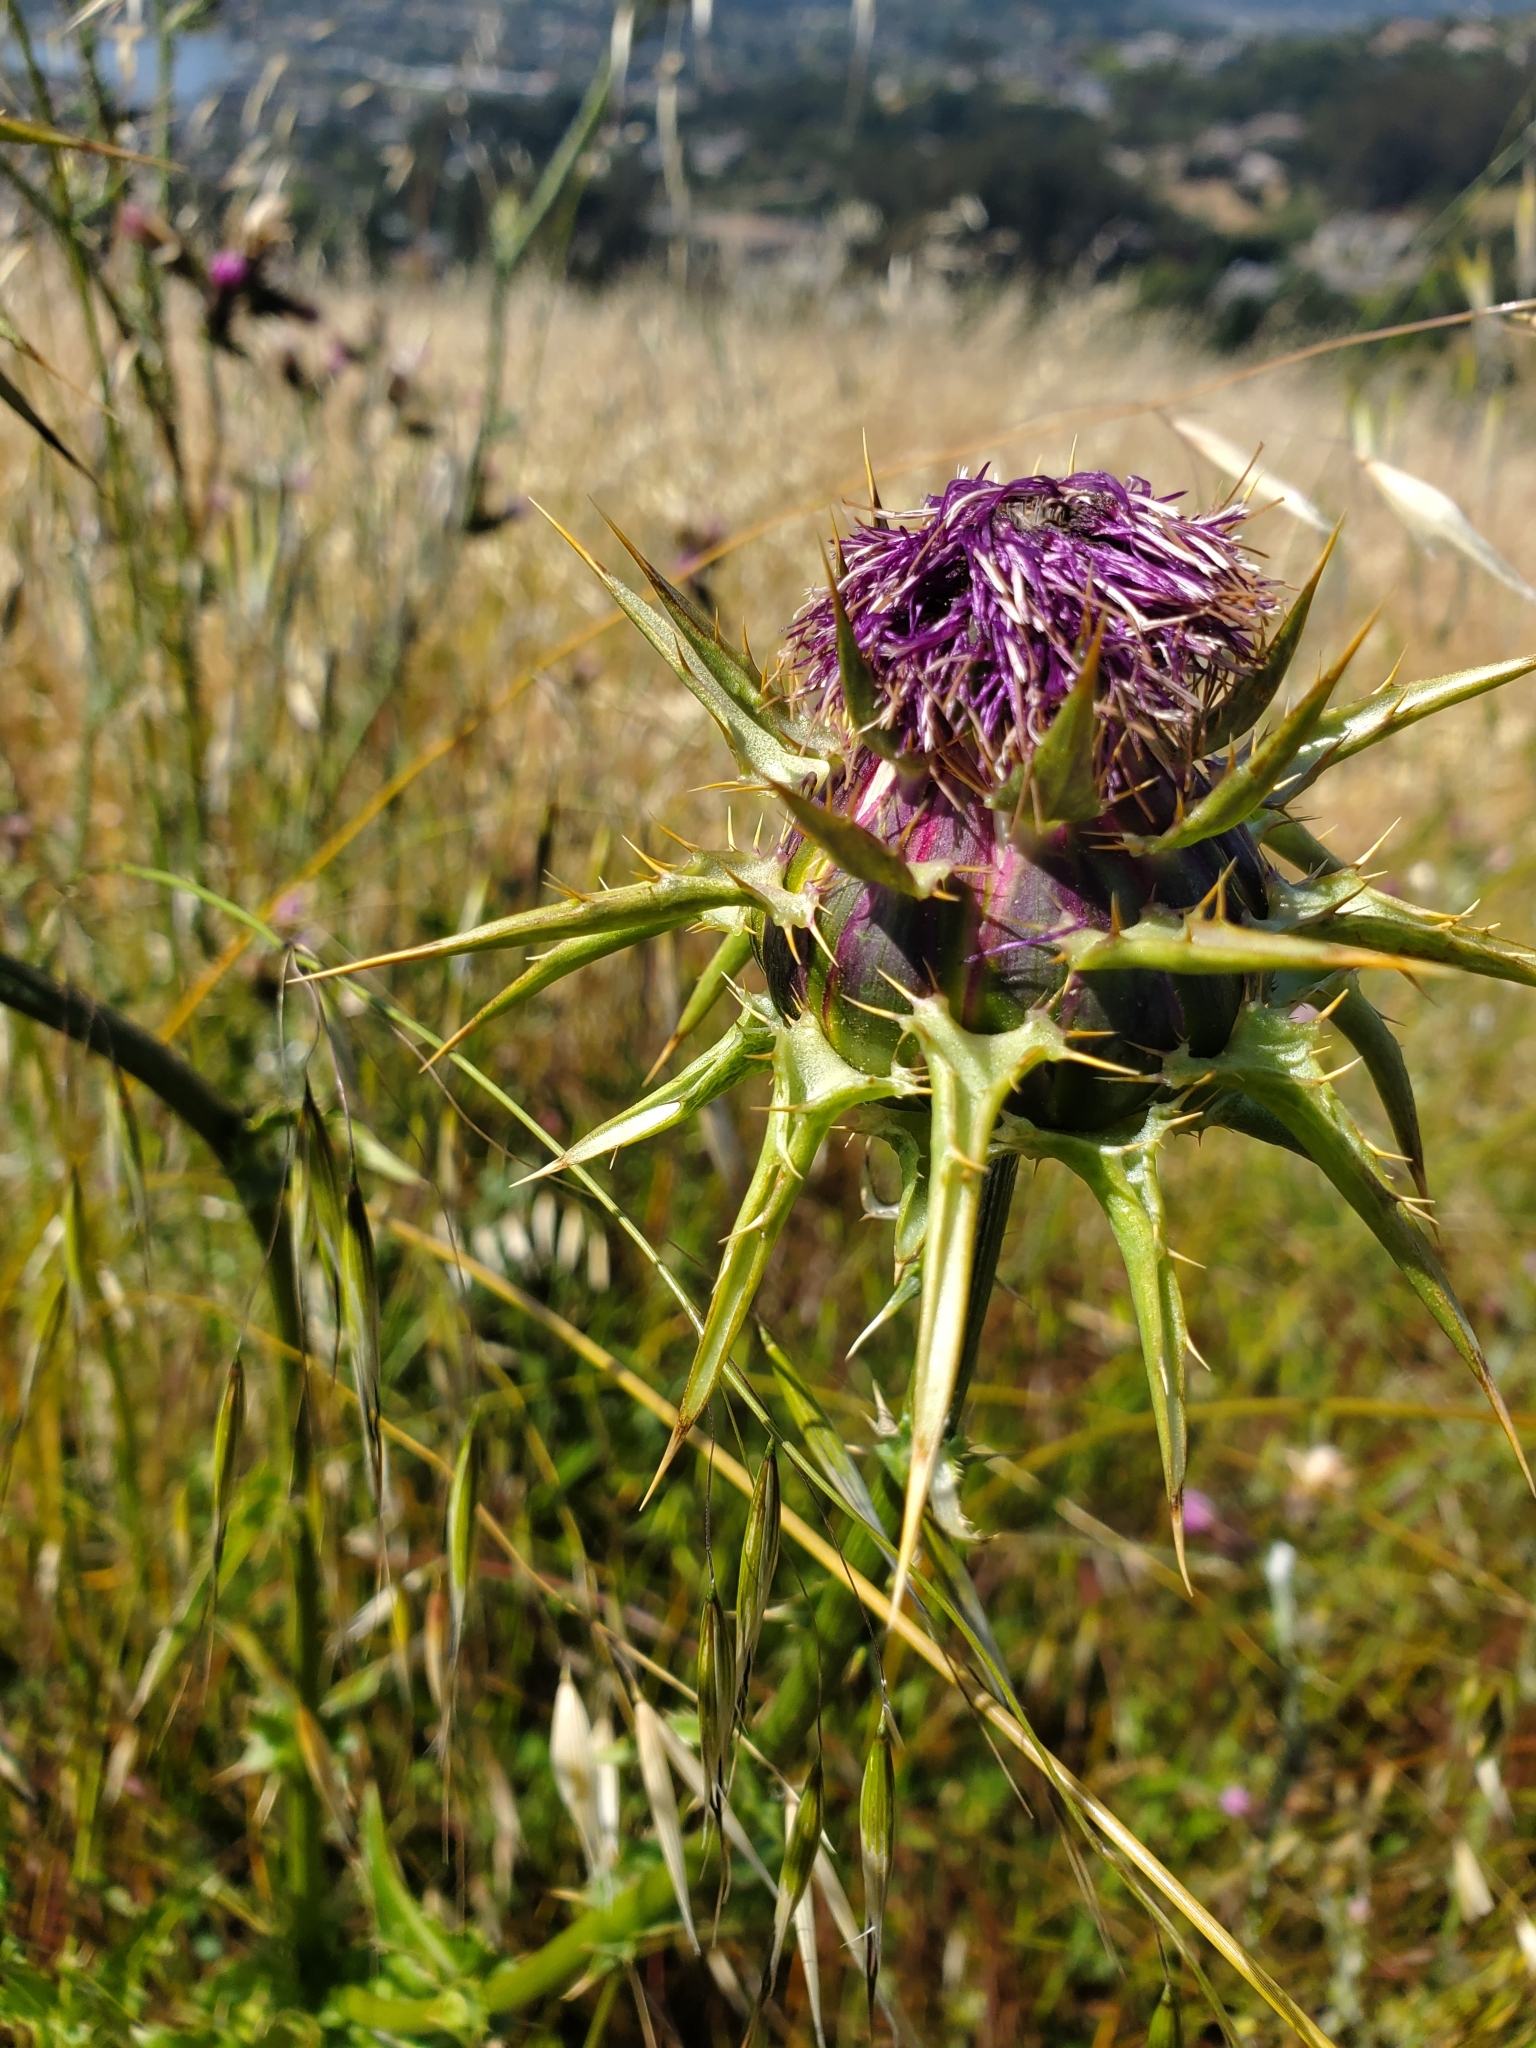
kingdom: Plantae
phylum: Tracheophyta
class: Magnoliopsida
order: Asterales
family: Asteraceae
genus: Silybum
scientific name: Silybum marianum
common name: Milk thistle
